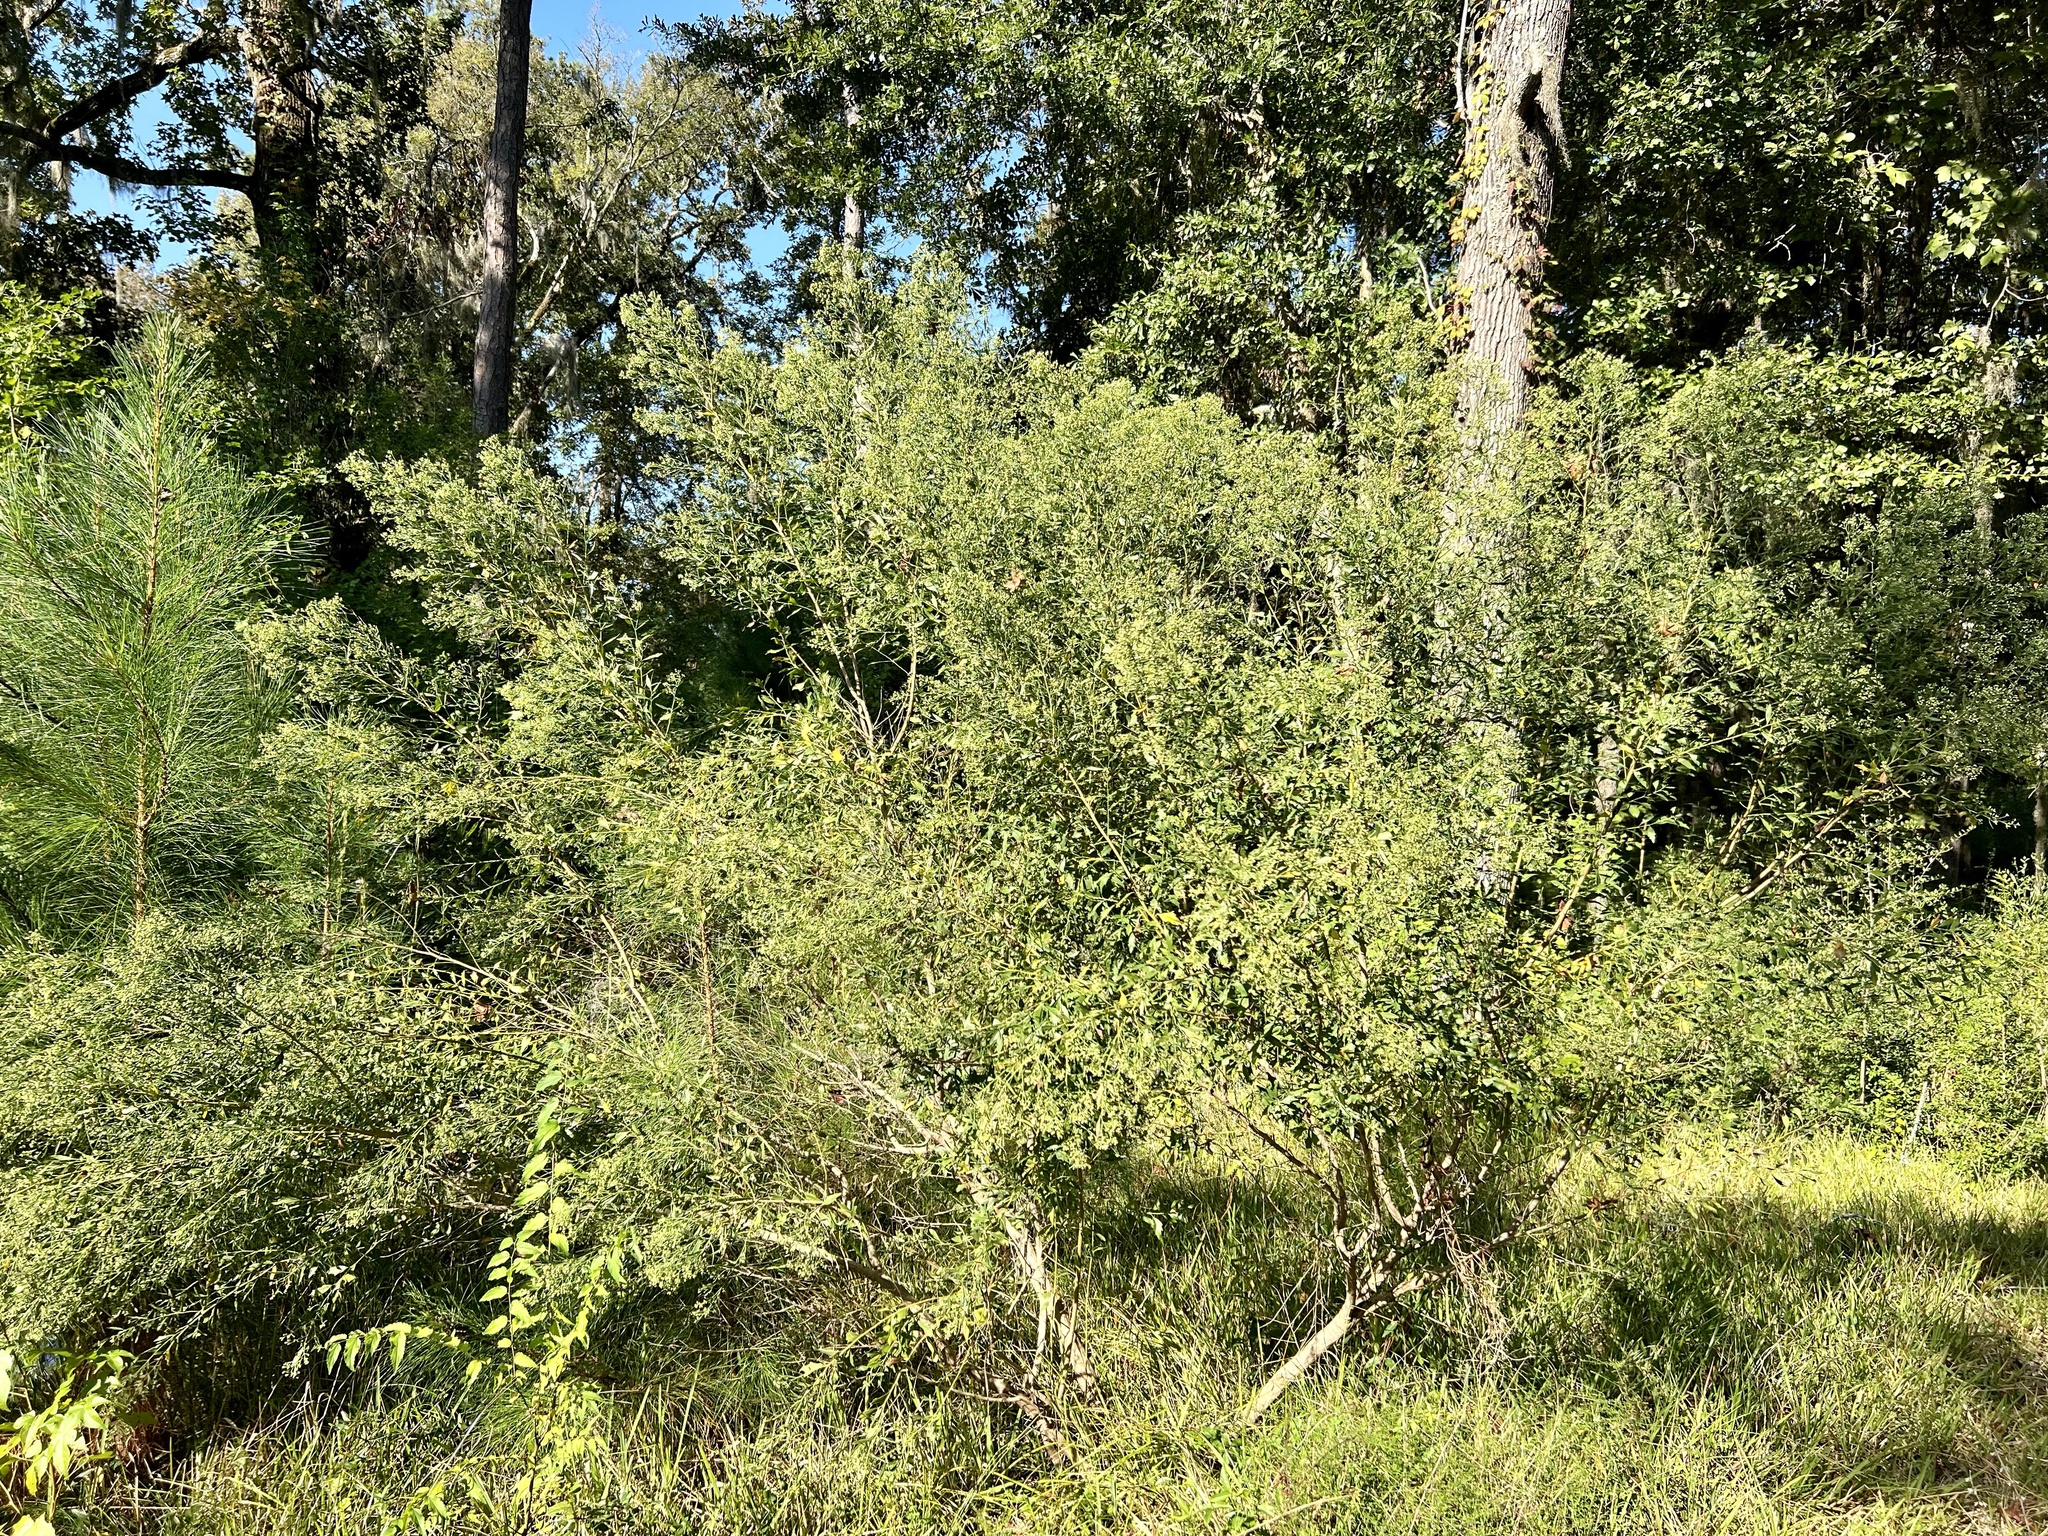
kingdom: Plantae
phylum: Tracheophyta
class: Magnoliopsida
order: Asterales
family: Asteraceae
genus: Baccharis
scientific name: Baccharis halimifolia
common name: Eastern baccharis
